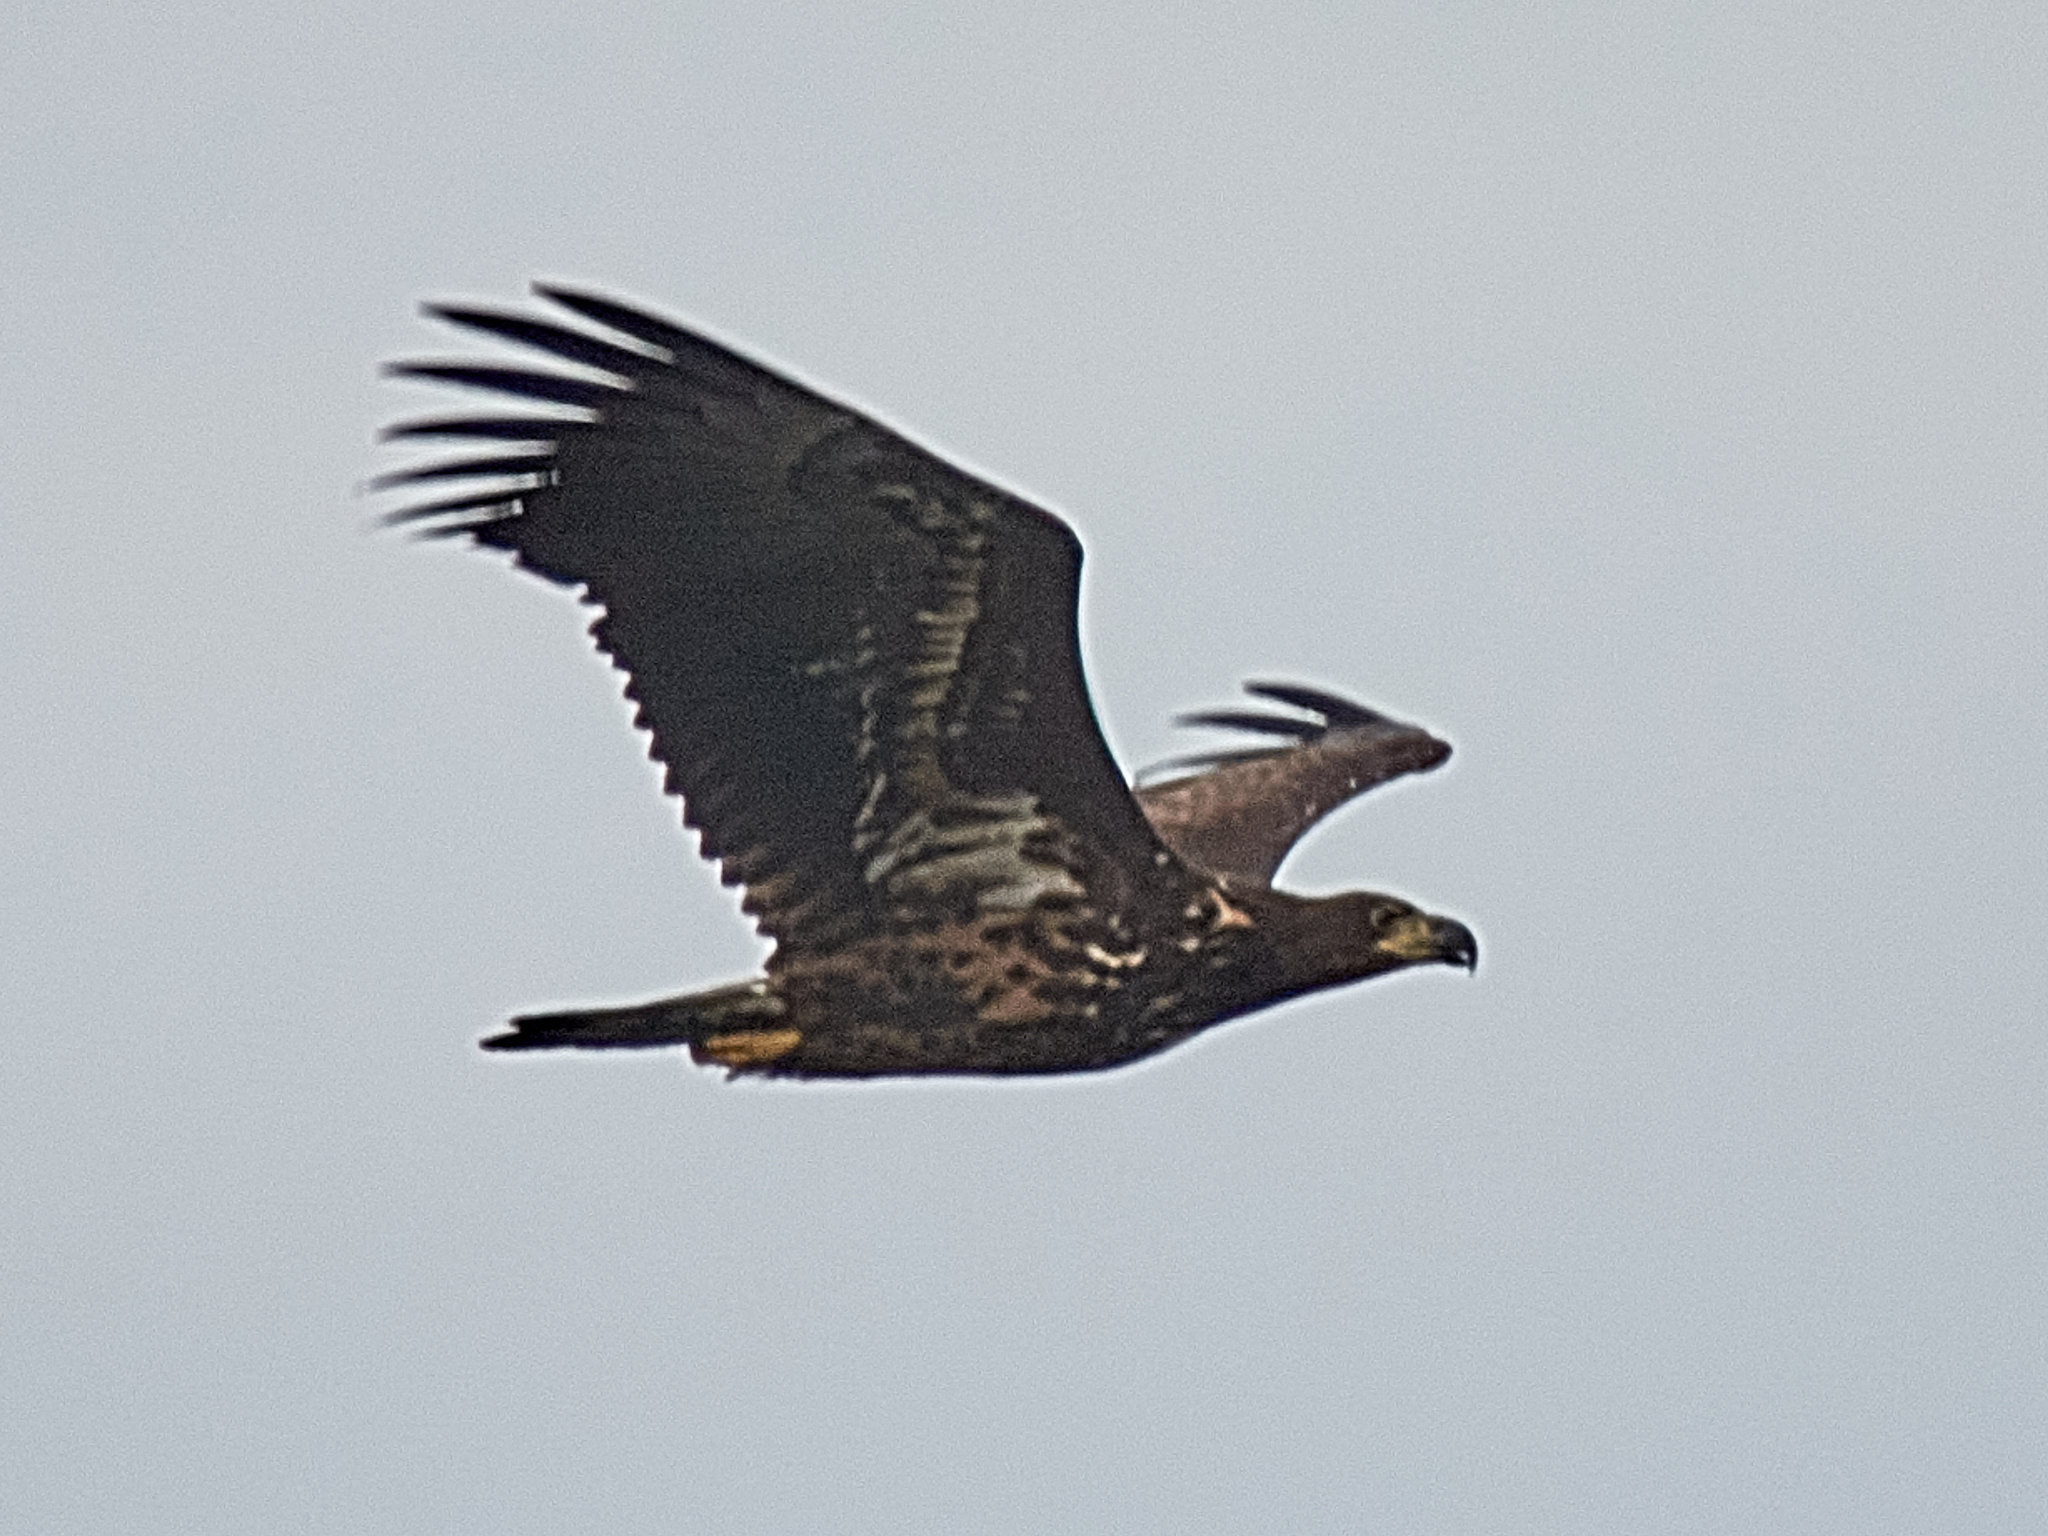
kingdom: Animalia
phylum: Chordata
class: Aves
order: Accipitriformes
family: Accipitridae
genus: Haliaeetus
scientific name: Haliaeetus albicilla
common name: White-tailed eagle
